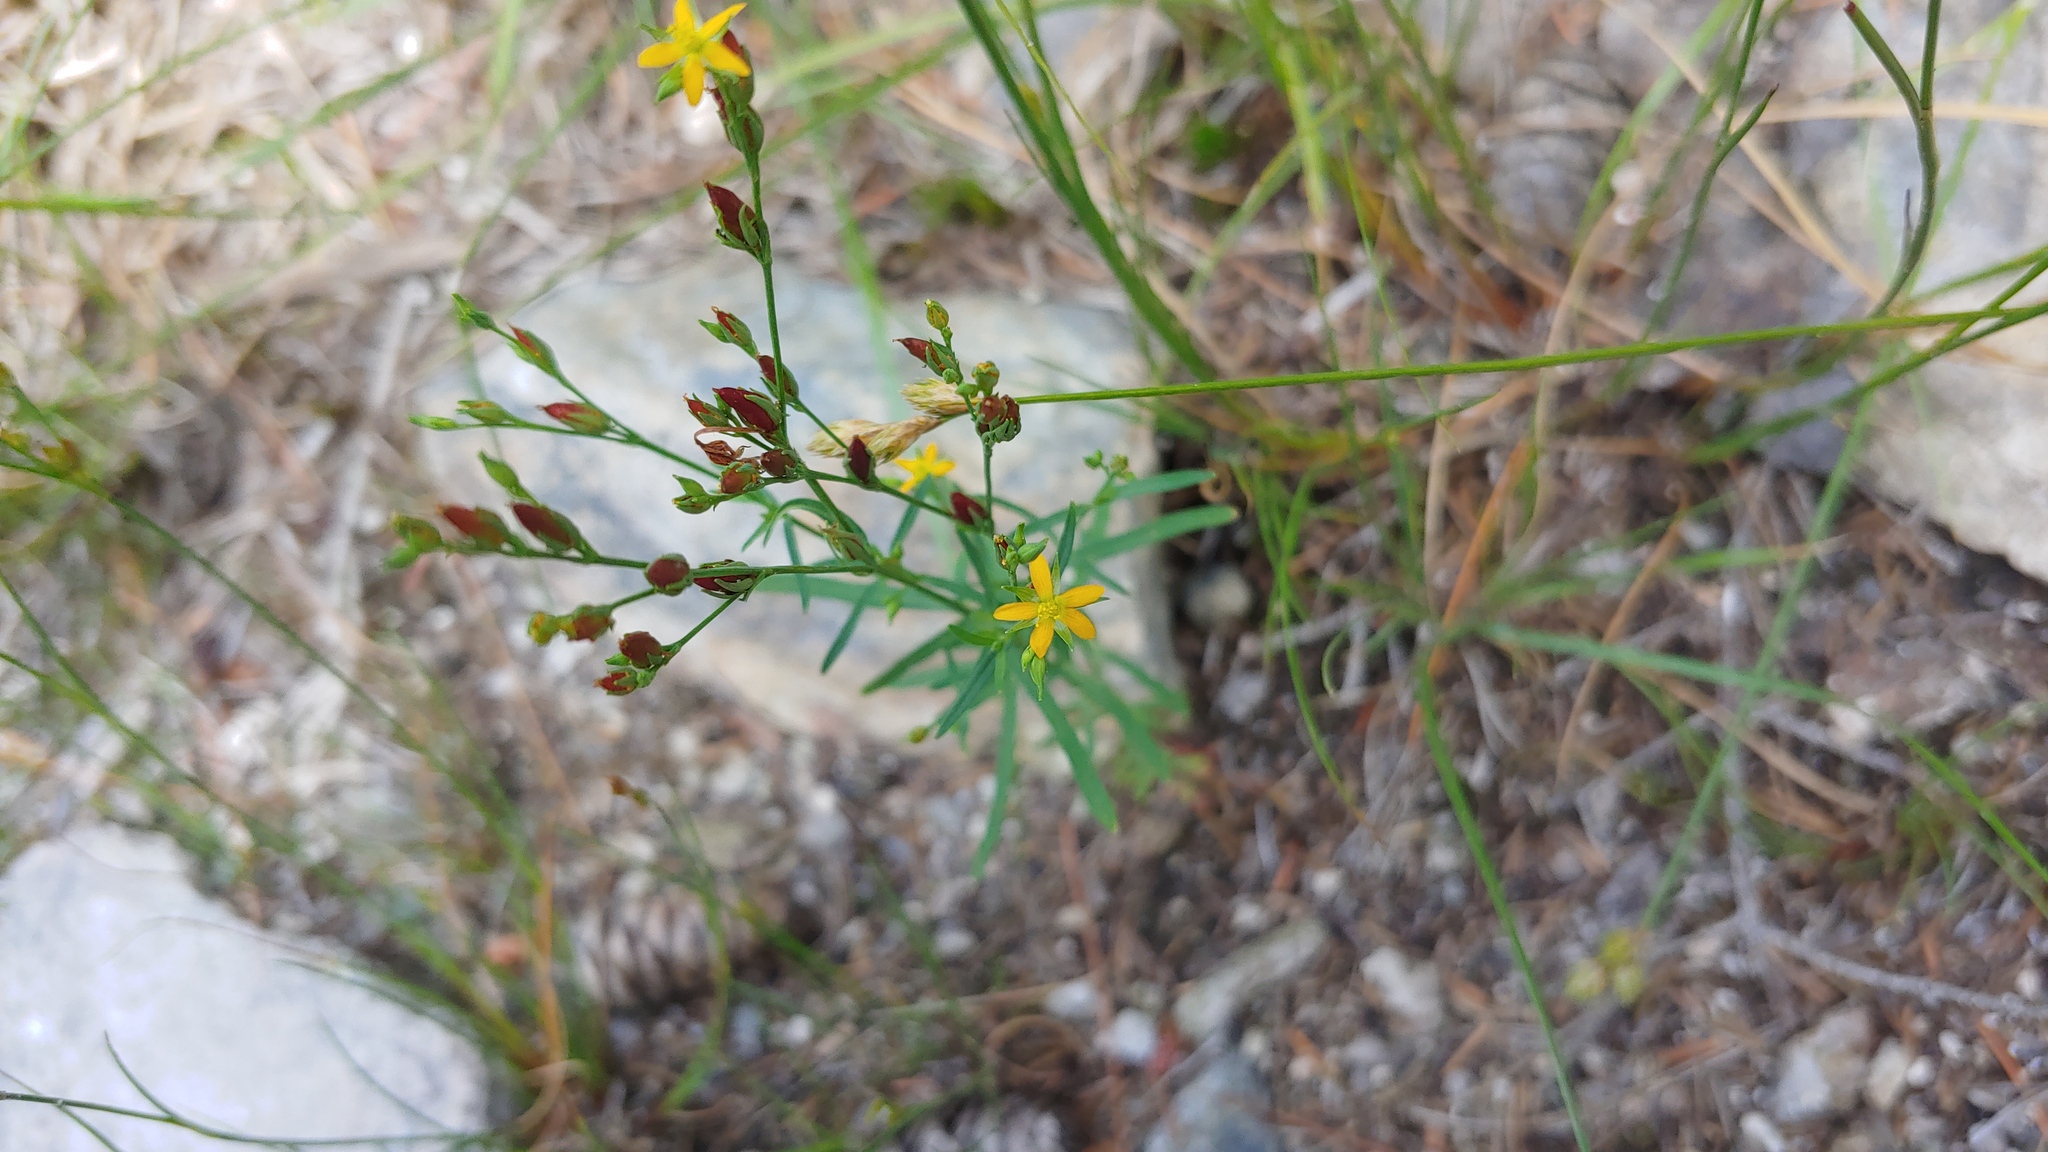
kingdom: Plantae
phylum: Tracheophyta
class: Magnoliopsida
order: Malpighiales
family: Hypericaceae
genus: Hypericum
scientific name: Hypericum canadense
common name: Irish st. john's-wort
